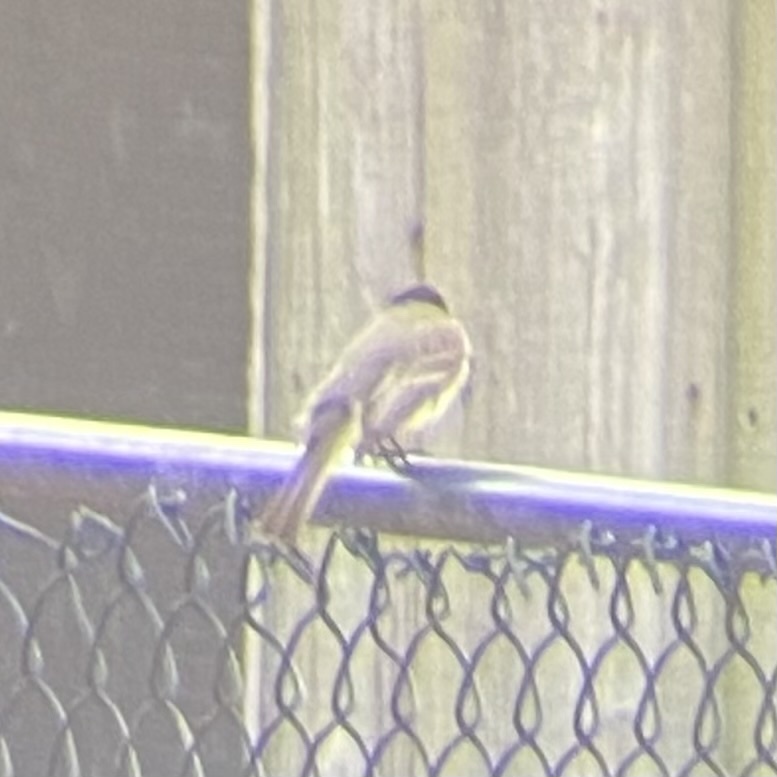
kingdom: Animalia
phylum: Chordata
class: Aves
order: Passeriformes
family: Tyrannidae
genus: Sayornis
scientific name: Sayornis phoebe
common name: Eastern phoebe
